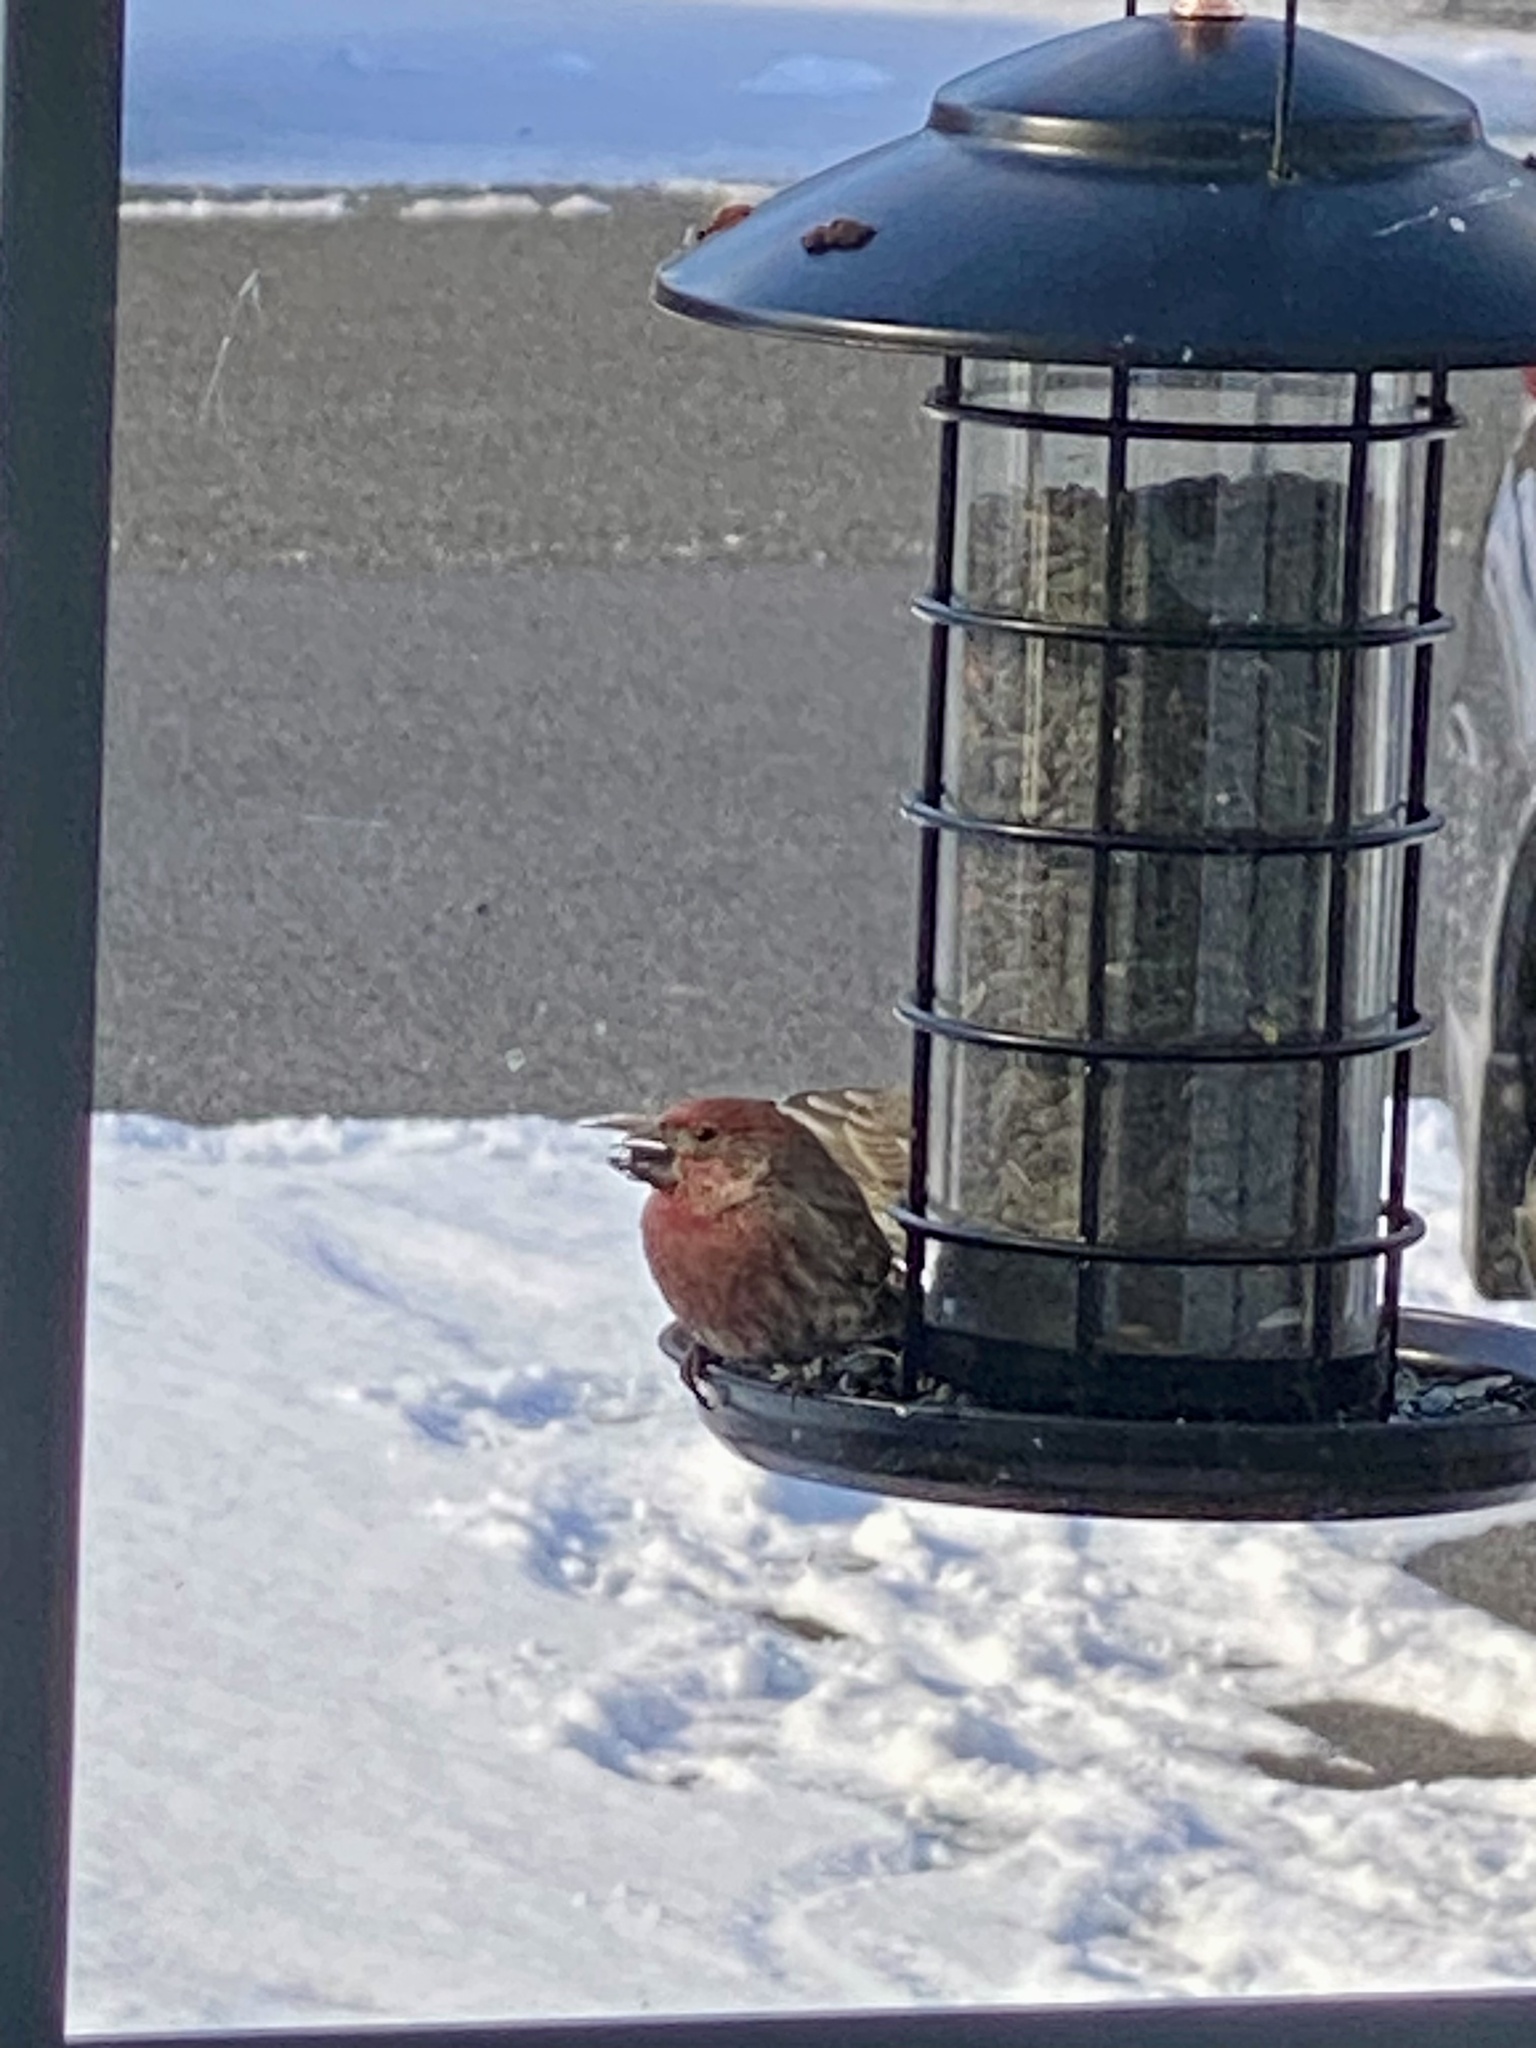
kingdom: Animalia
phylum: Chordata
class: Aves
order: Passeriformes
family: Fringillidae
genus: Haemorhous
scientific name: Haemorhous mexicanus
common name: House finch
